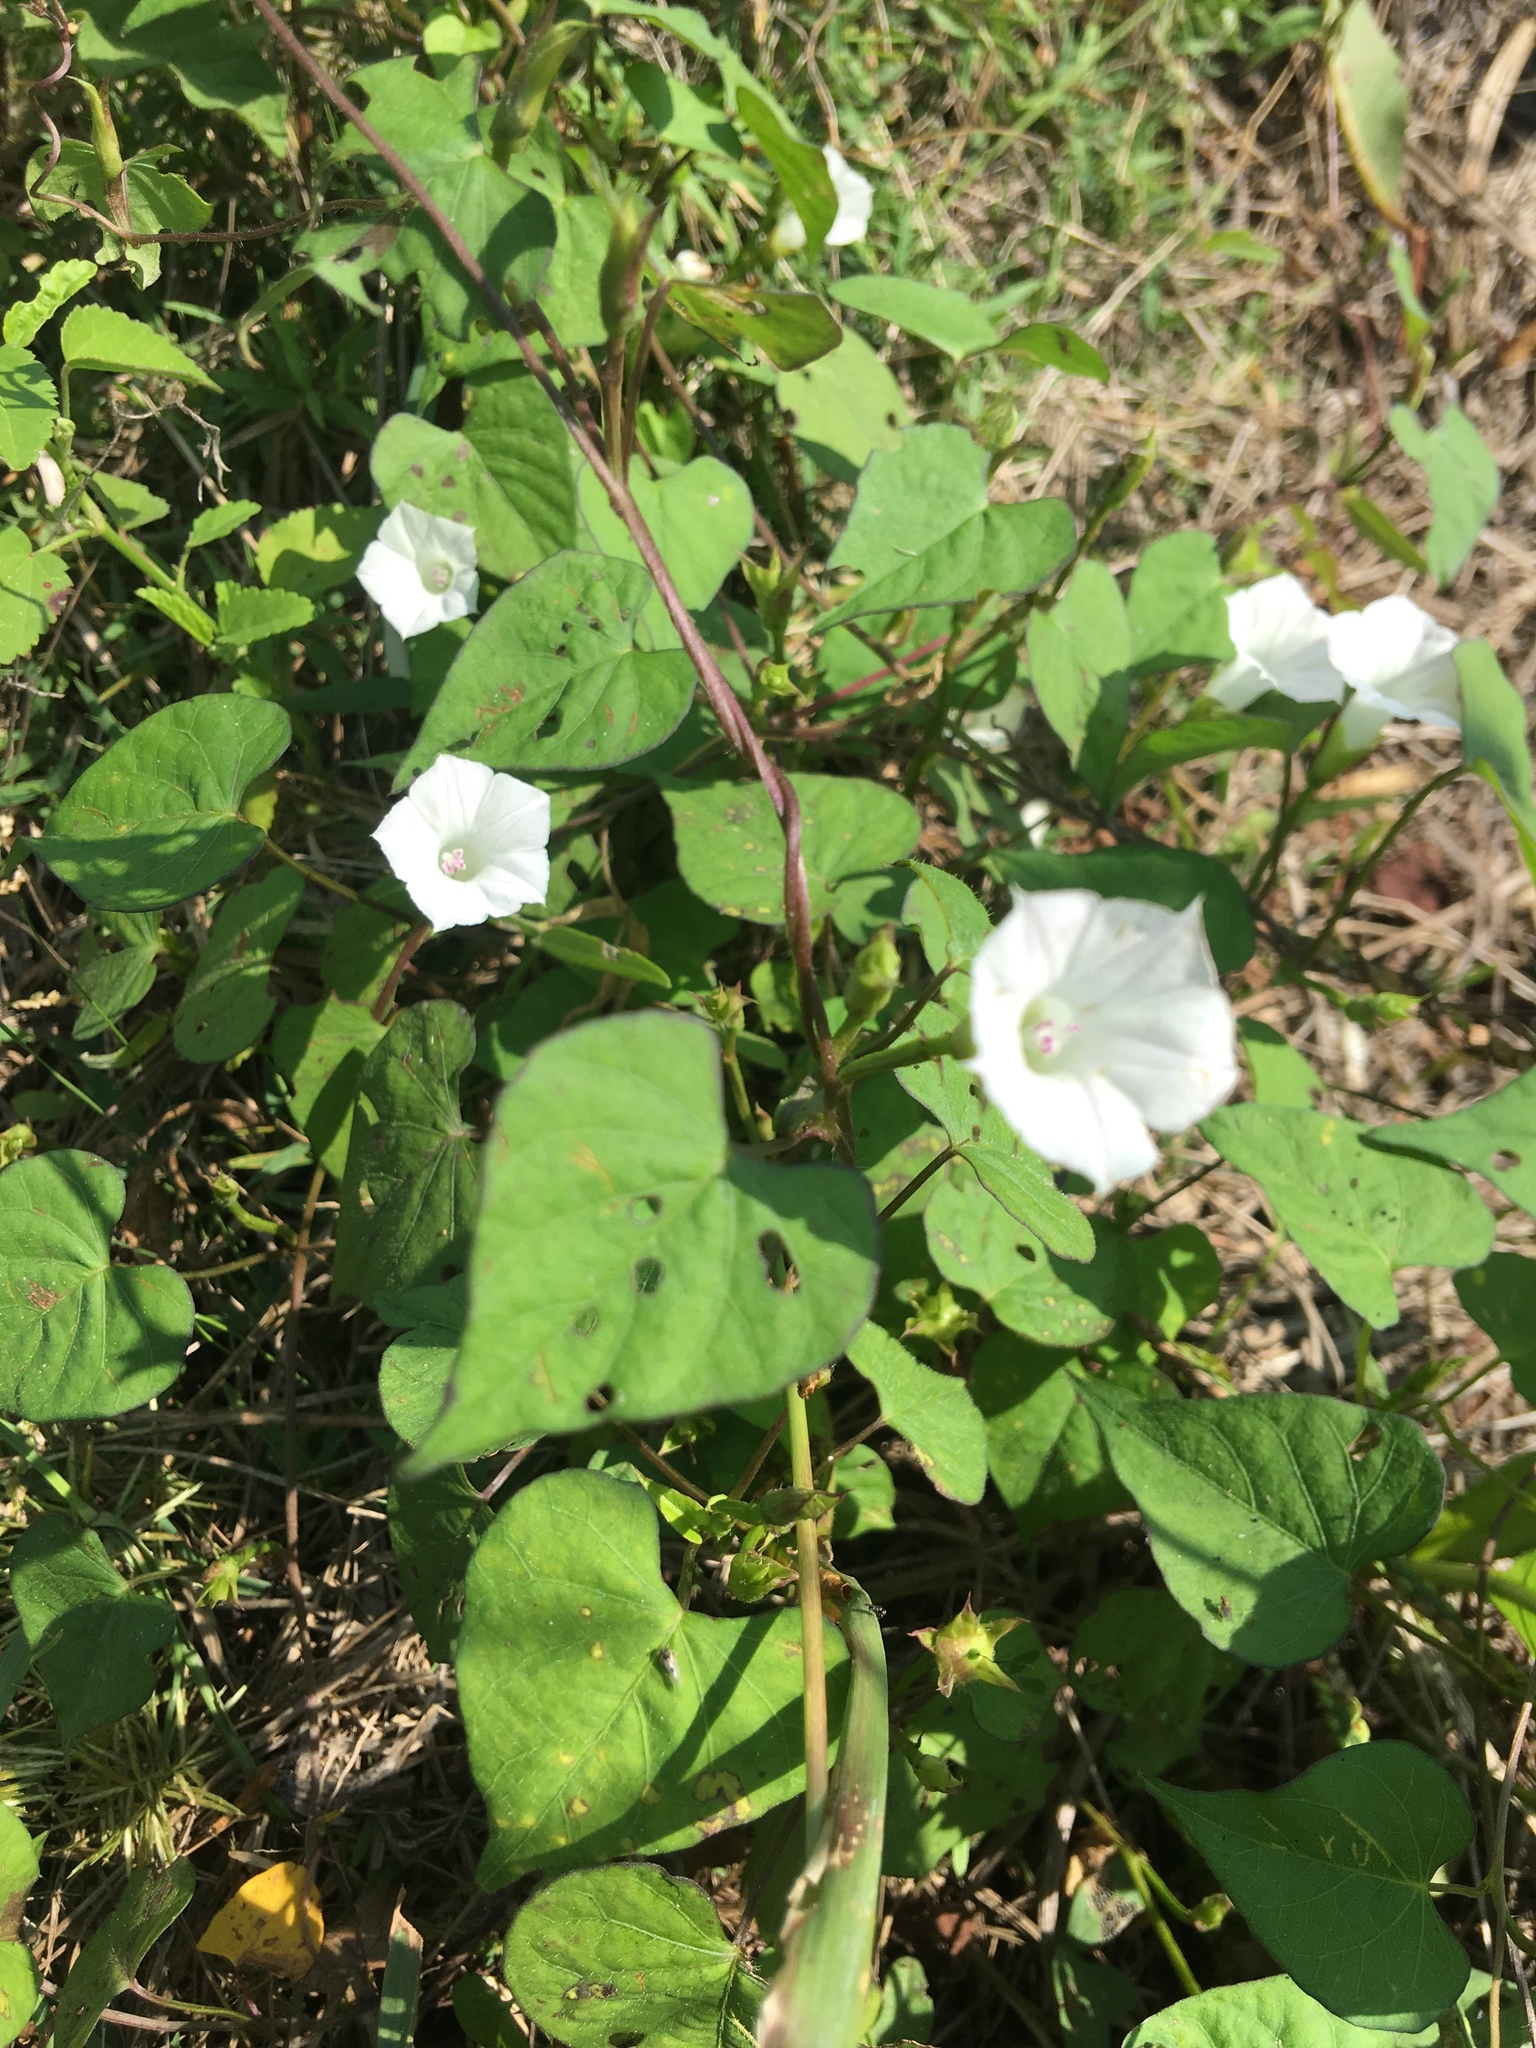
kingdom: Plantae
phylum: Tracheophyta
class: Magnoliopsida
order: Solanales
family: Convolvulaceae
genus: Ipomoea
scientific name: Ipomoea lacunosa
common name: White morning-glory
